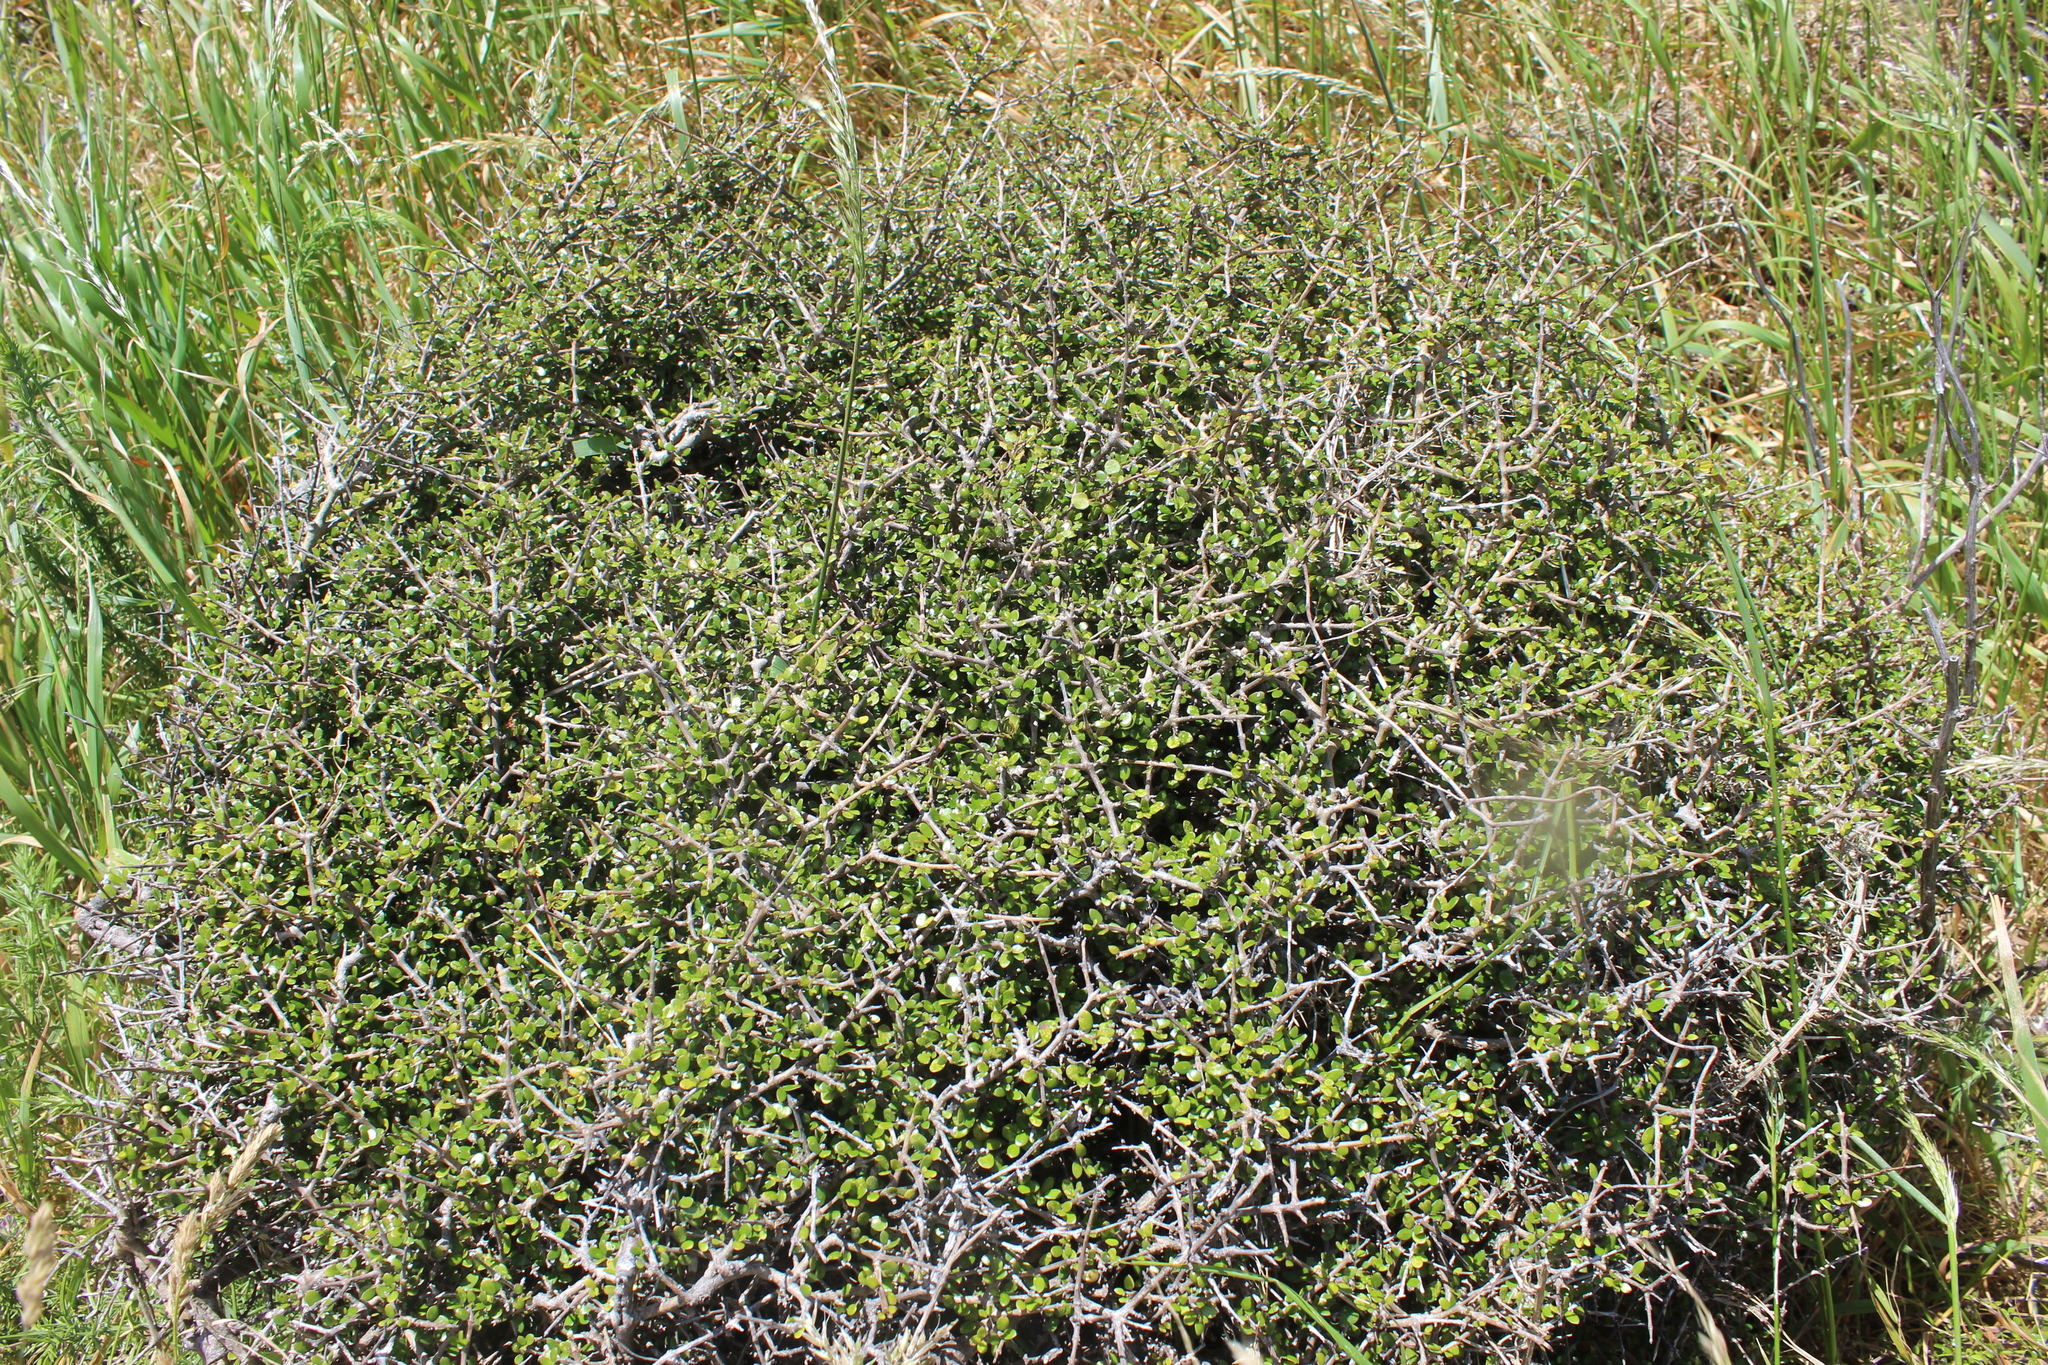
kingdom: Plantae
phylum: Tracheophyta
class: Magnoliopsida
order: Gentianales
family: Rubiaceae
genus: Coprosma
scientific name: Coprosma propinqua
